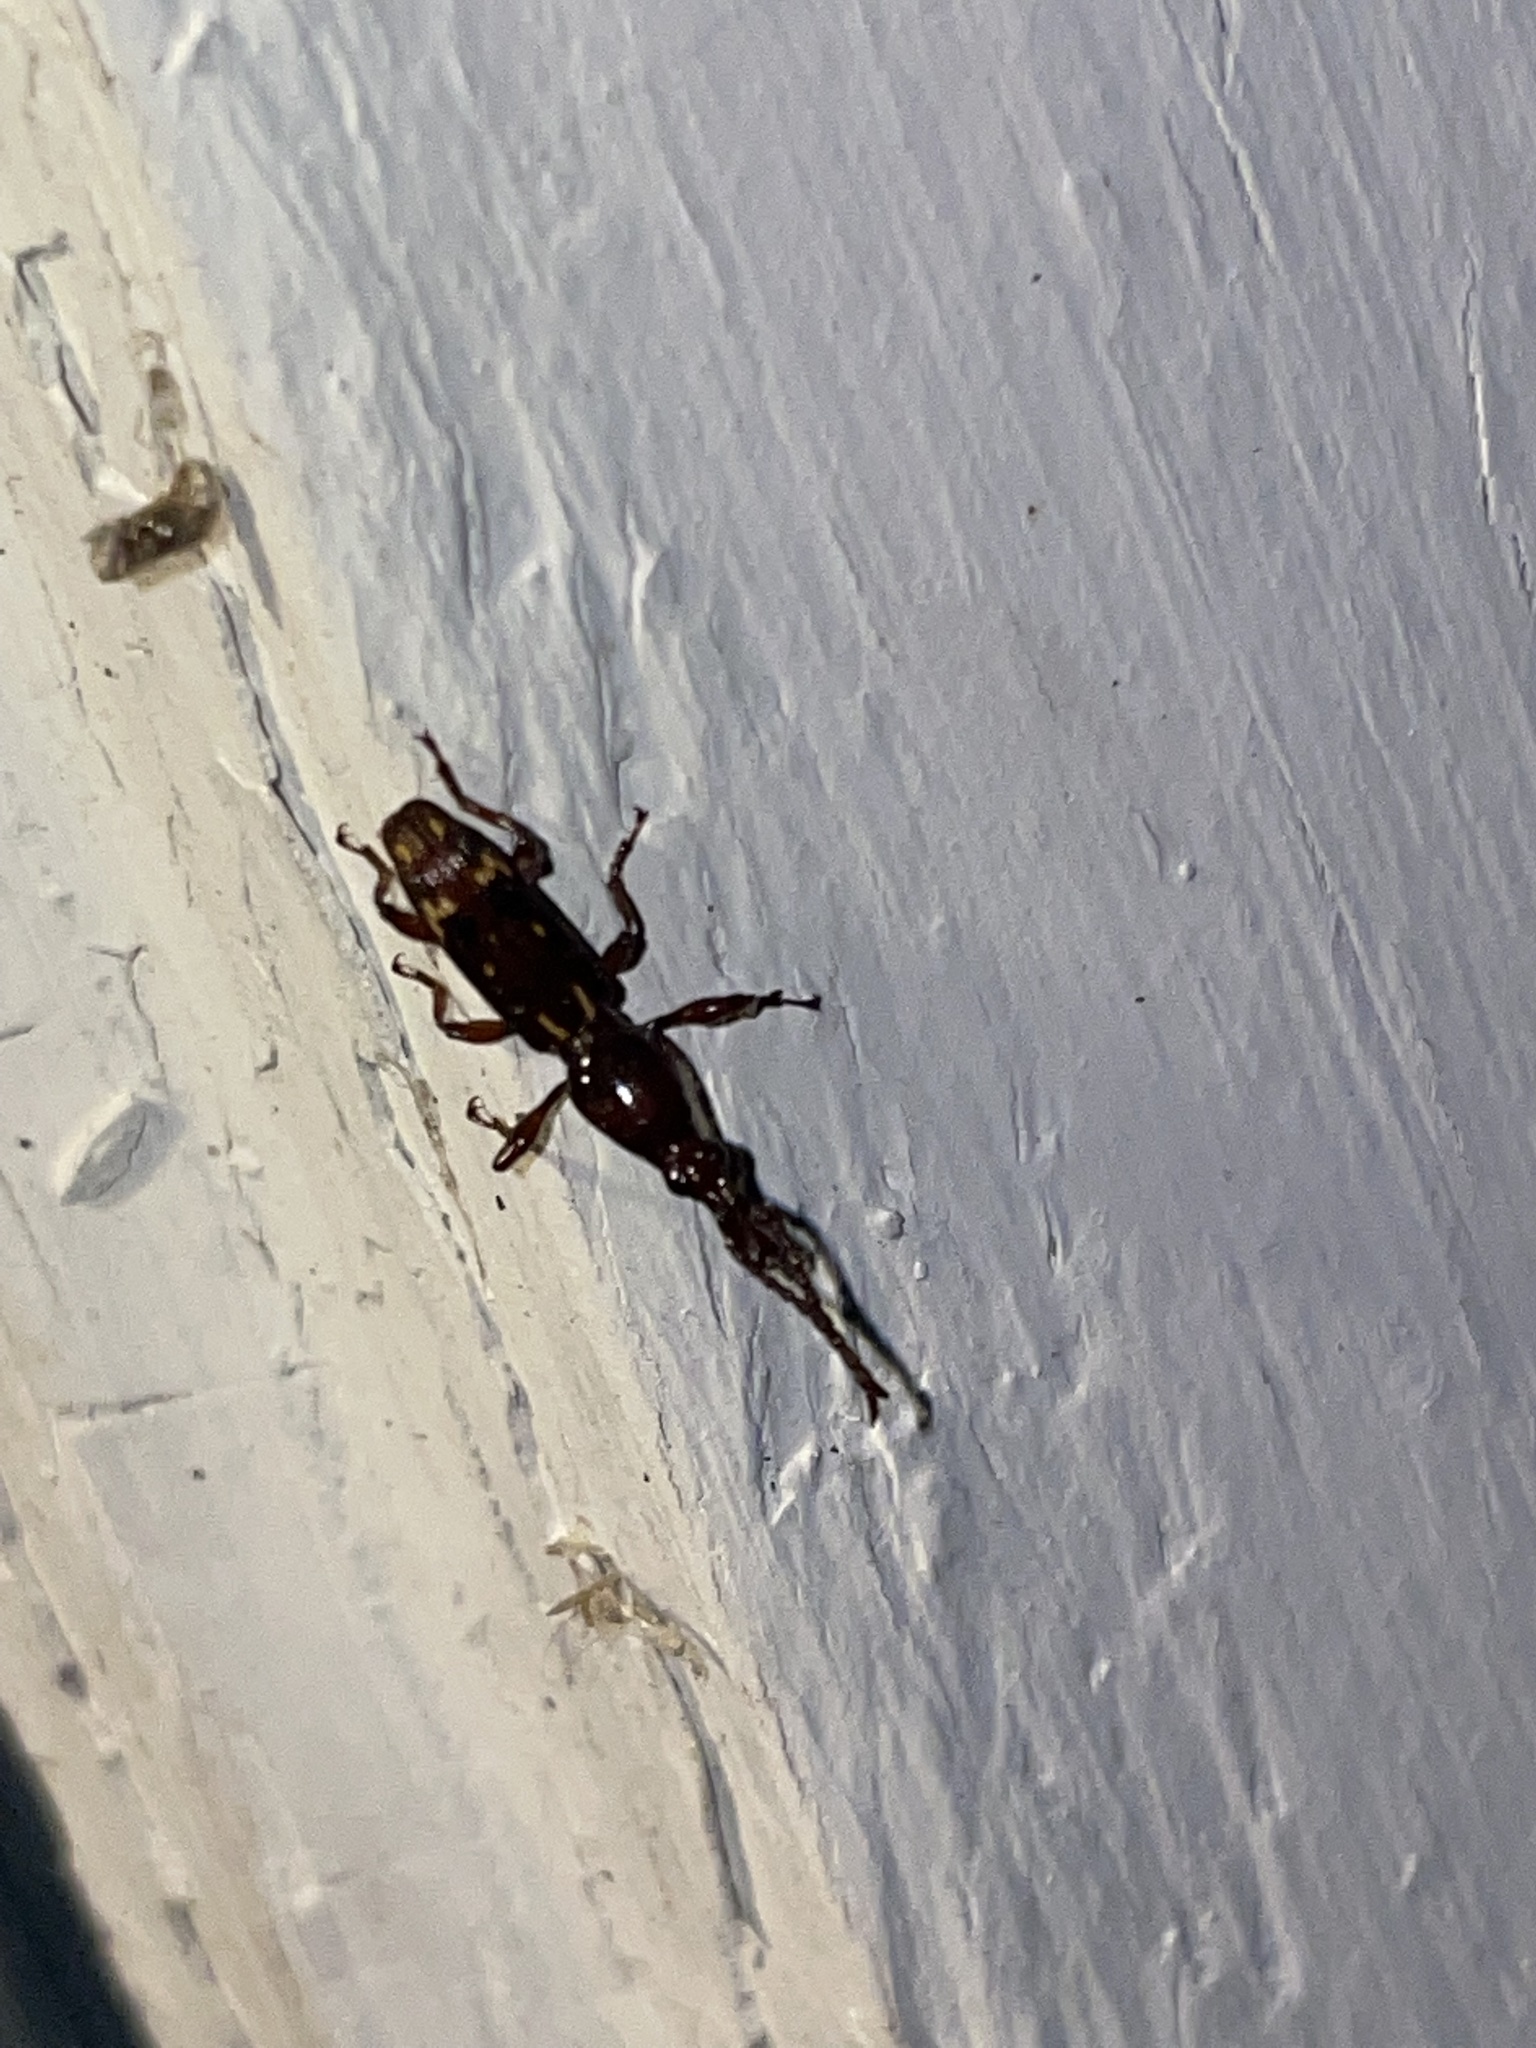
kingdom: Animalia
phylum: Arthropoda
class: Insecta
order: Coleoptera
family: Brentidae
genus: Arrenodes
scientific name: Arrenodes minutus
